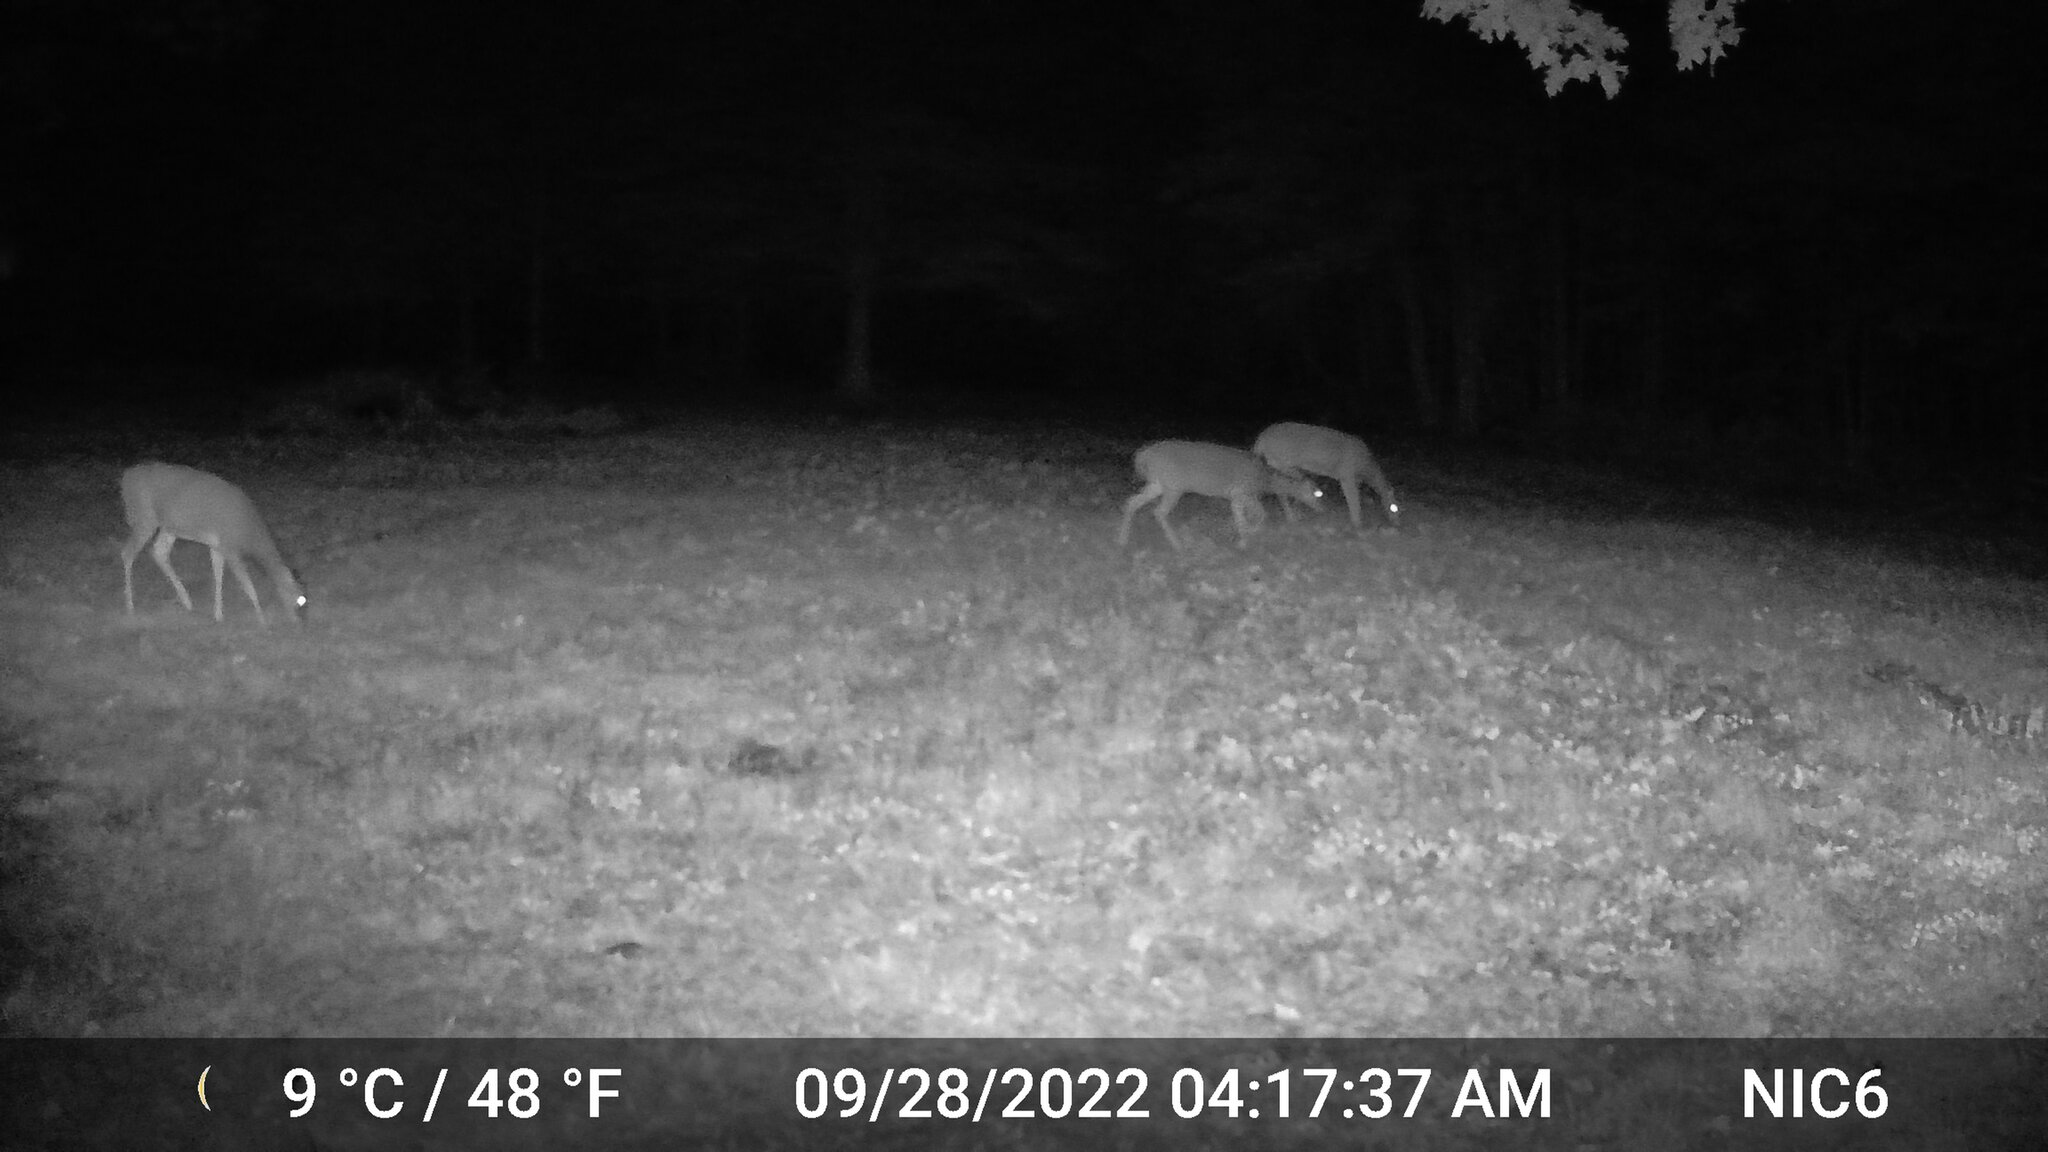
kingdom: Animalia
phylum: Chordata
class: Mammalia
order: Artiodactyla
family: Cervidae
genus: Odocoileus
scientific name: Odocoileus virginianus
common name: White-tailed deer
